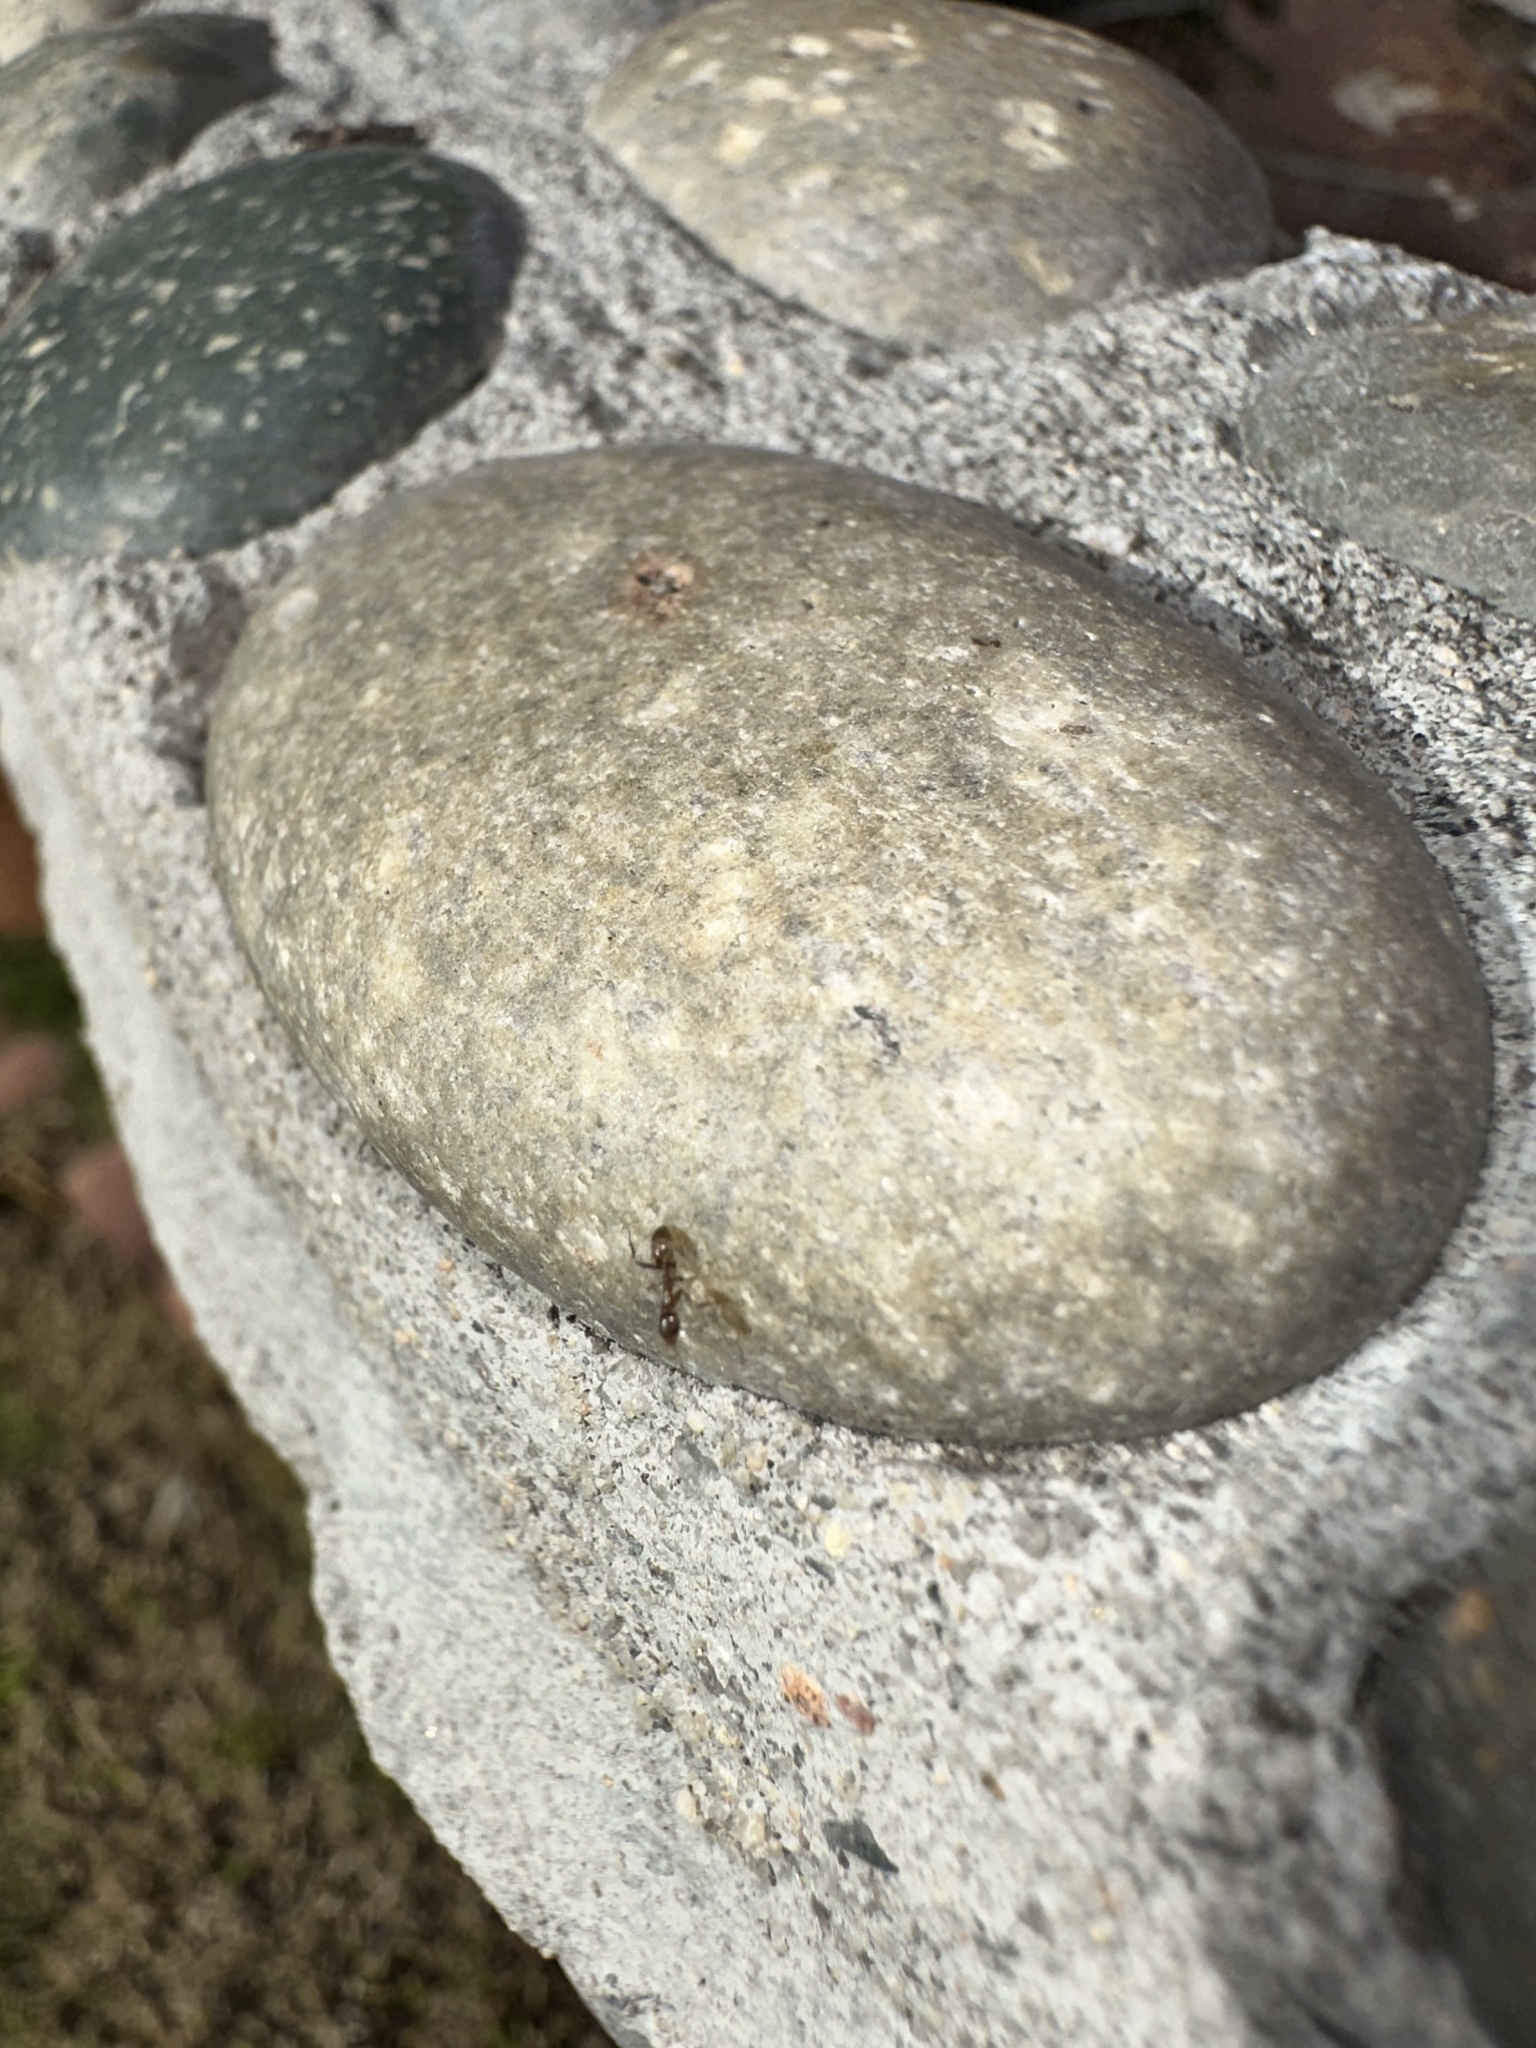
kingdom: Animalia
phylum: Arthropoda
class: Insecta
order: Hymenoptera
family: Formicidae
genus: Linepithema
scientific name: Linepithema humile
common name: Argentine ant
